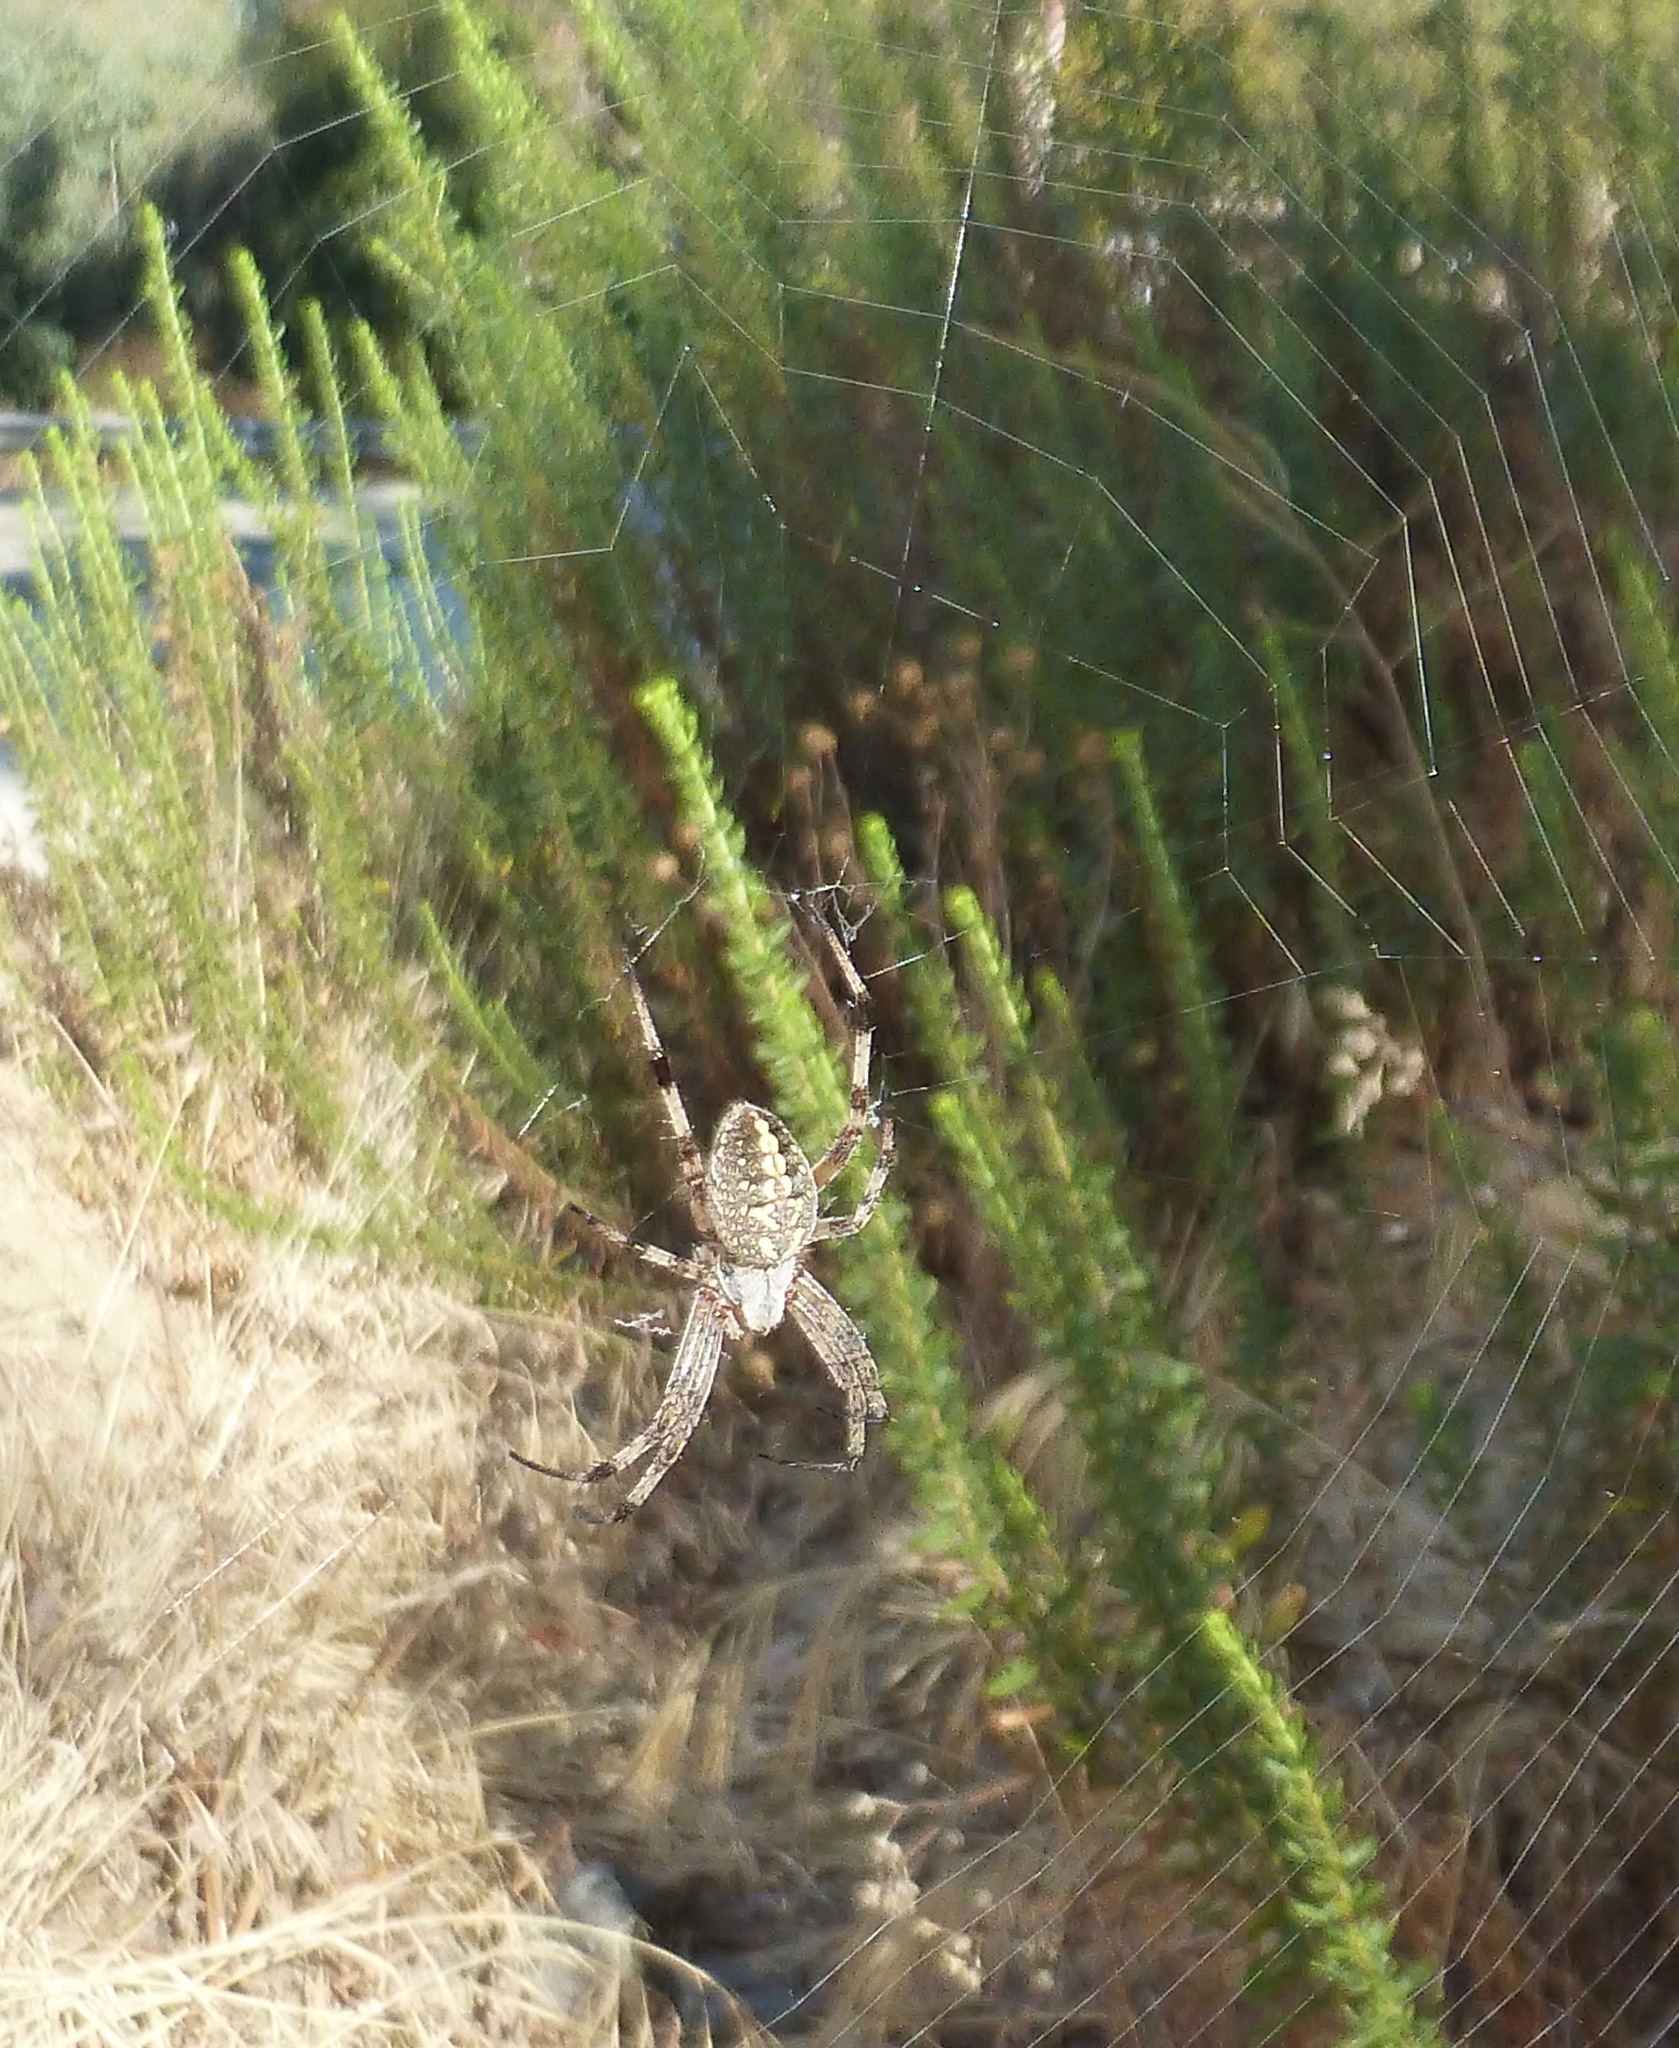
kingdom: Animalia
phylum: Arthropoda
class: Arachnida
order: Araneae
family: Araneidae
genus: Neoscona
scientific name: Neoscona oaxacensis
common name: Orb weavers
